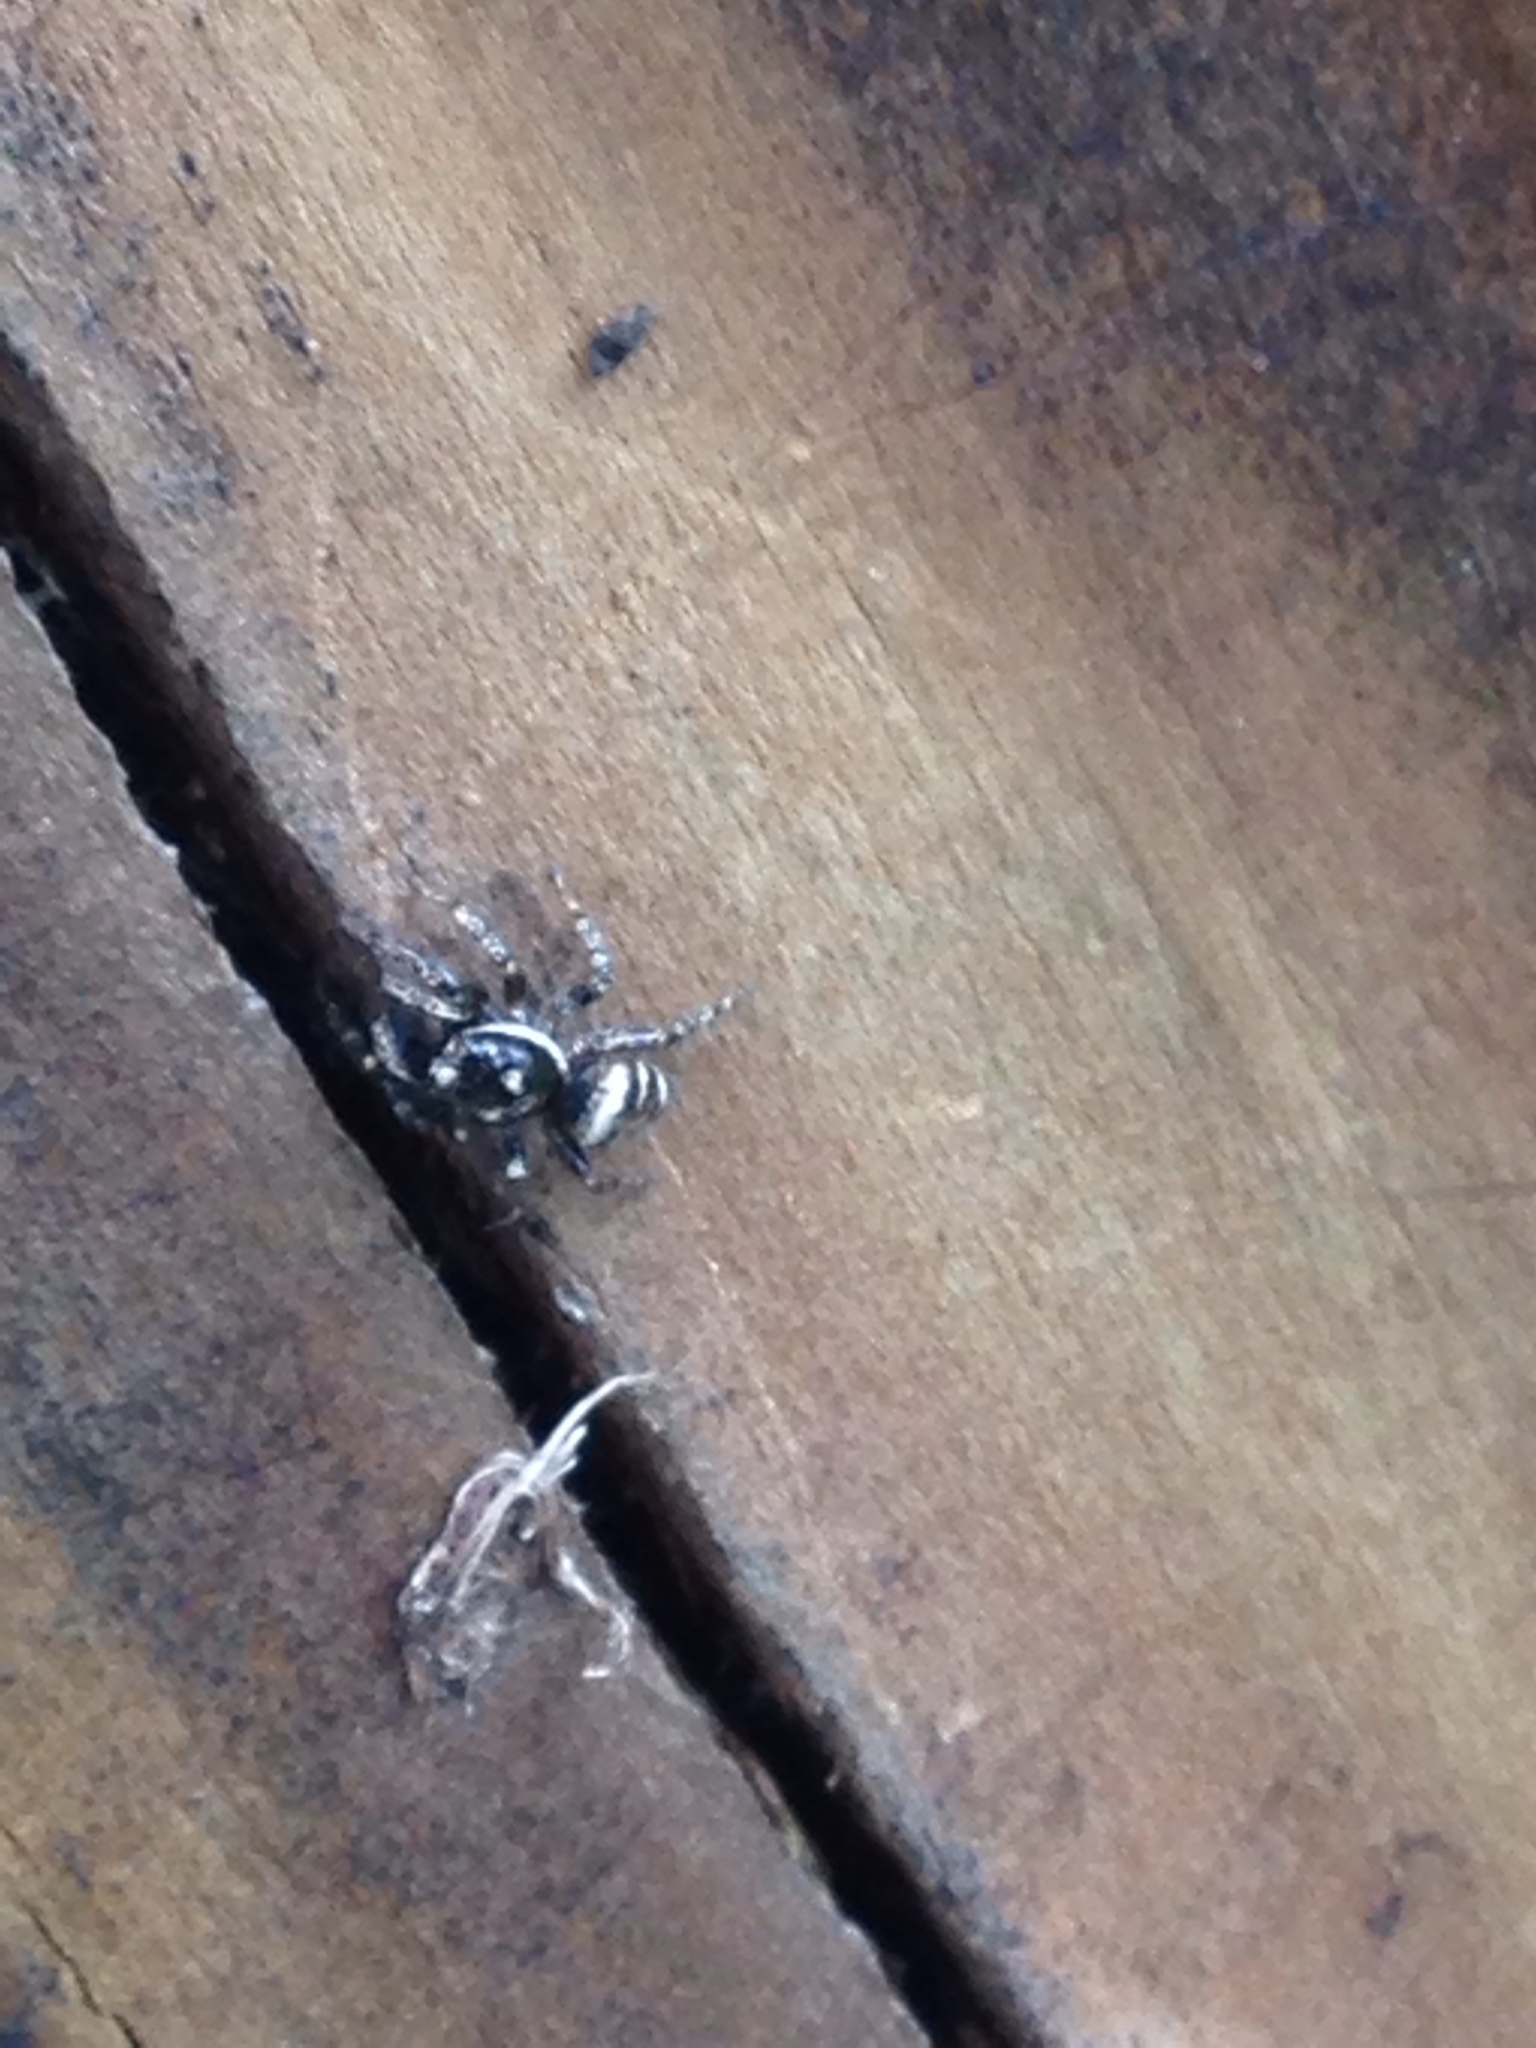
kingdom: Animalia
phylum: Arthropoda
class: Arachnida
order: Araneae
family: Salticidae
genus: Salticus
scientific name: Salticus scenicus
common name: Zebra jumper
